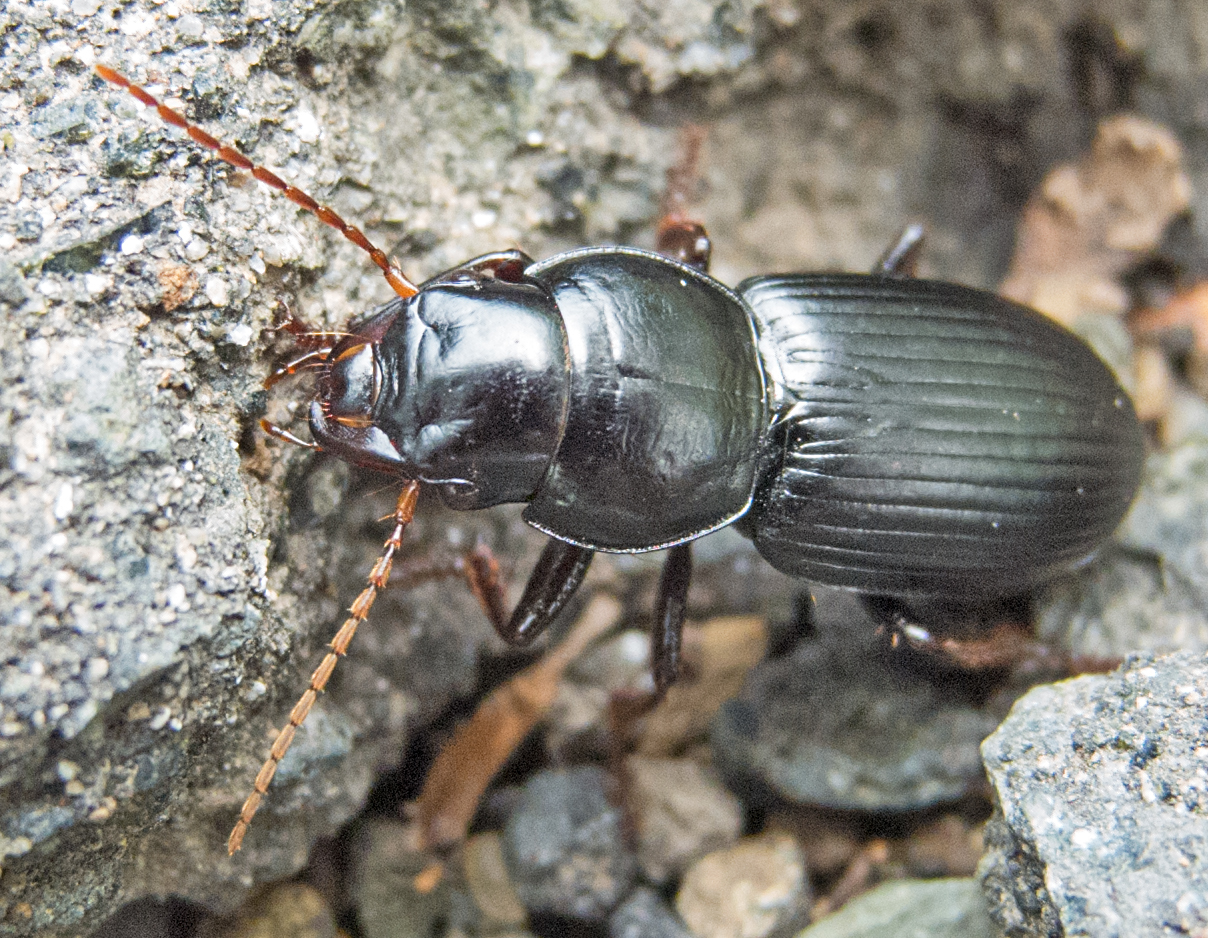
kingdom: Animalia
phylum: Arthropoda
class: Insecta
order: Coleoptera
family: Carabidae
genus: Acinopus
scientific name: Acinopus megacephalus
